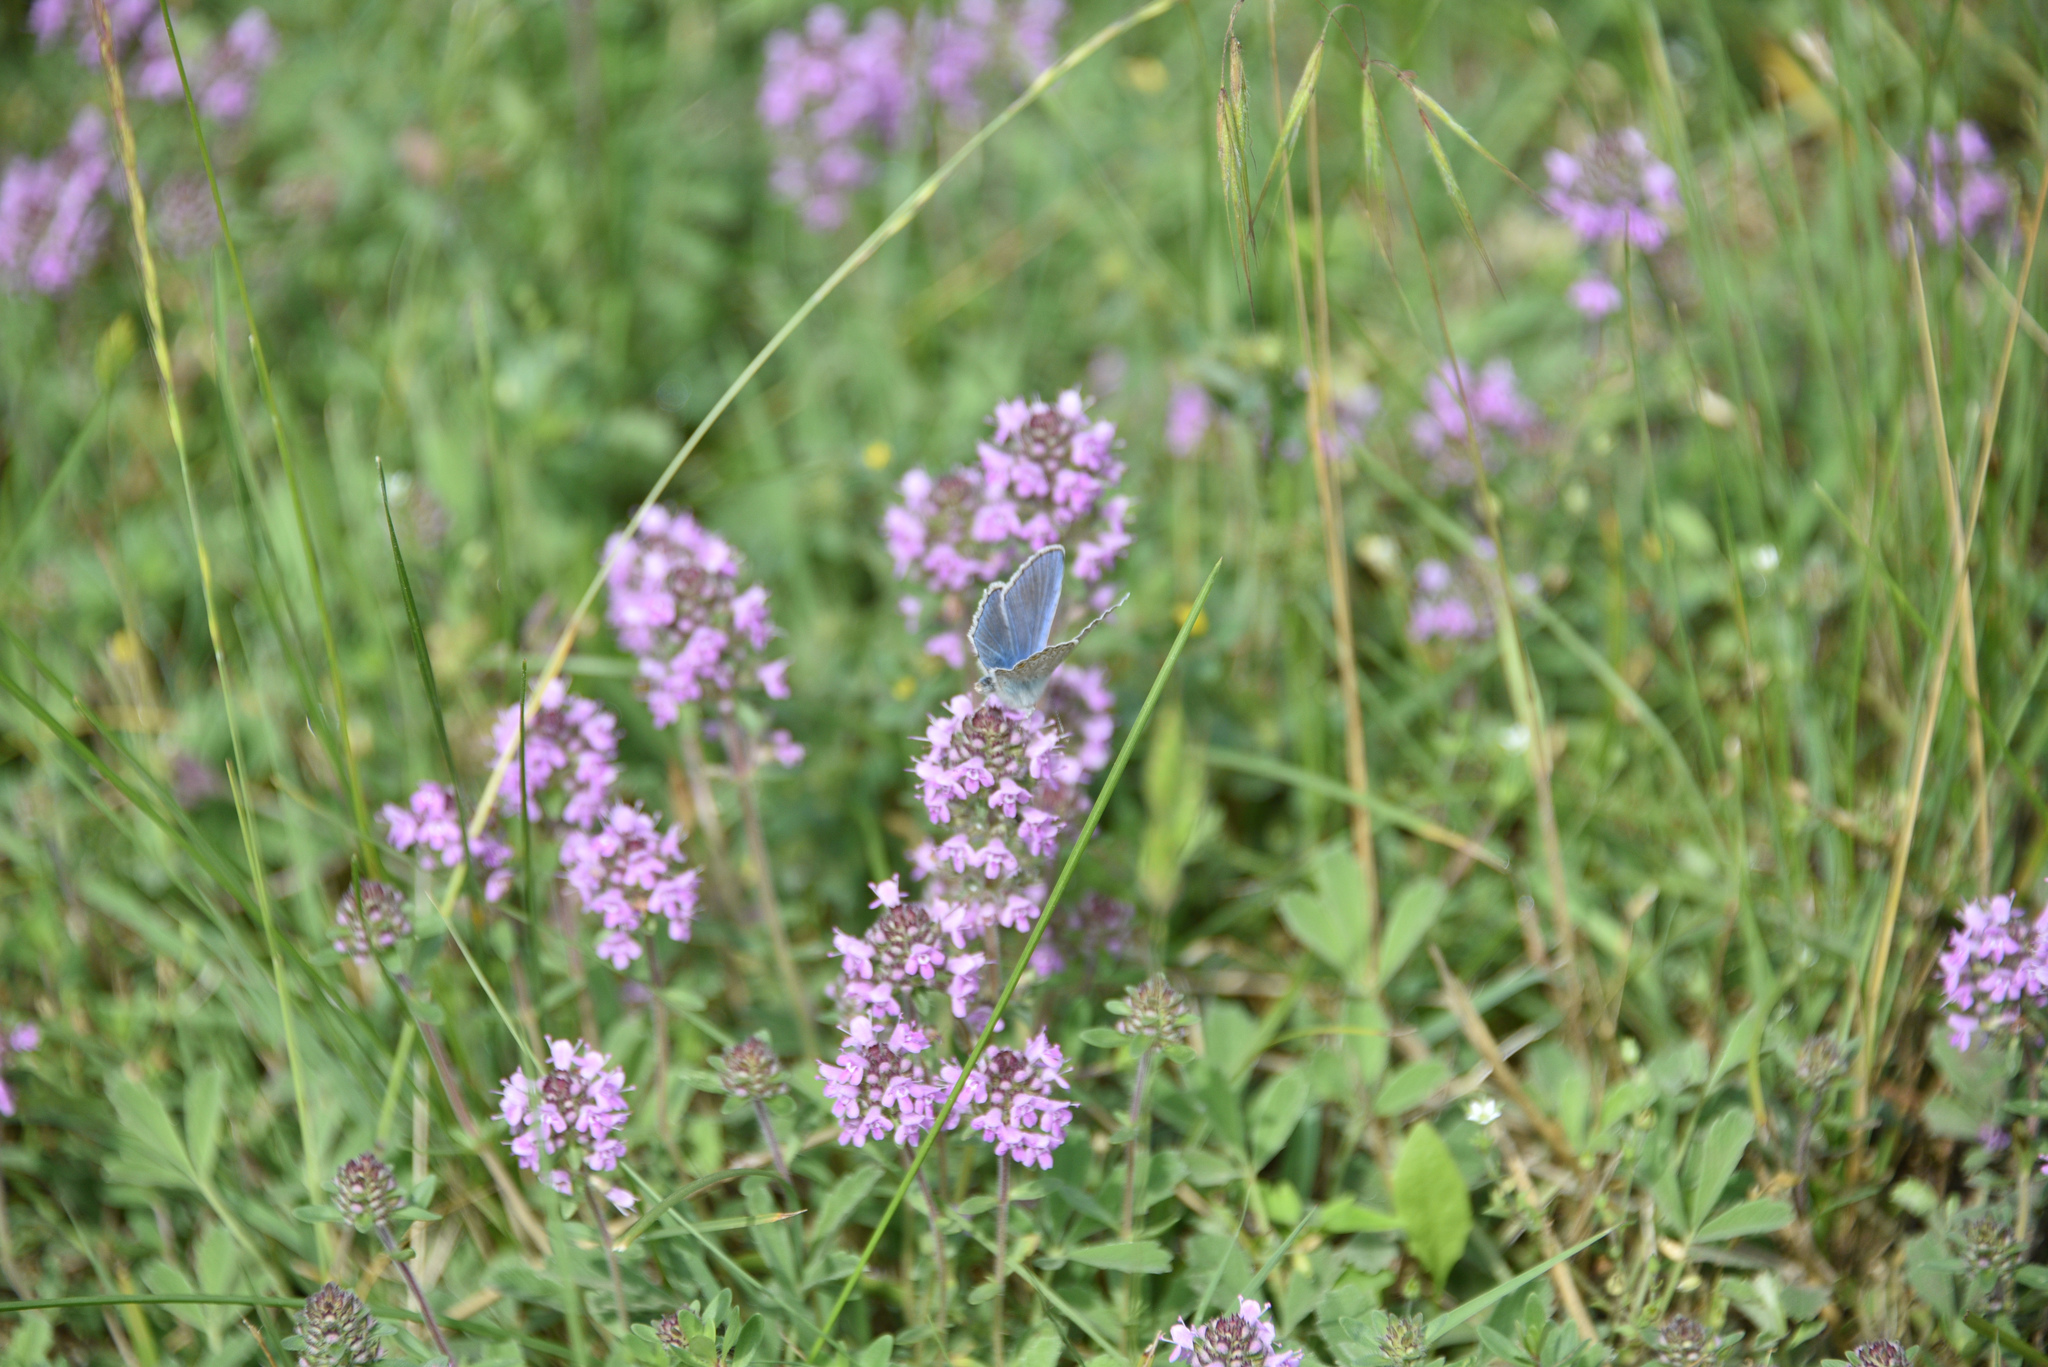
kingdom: Plantae
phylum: Tracheophyta
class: Magnoliopsida
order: Lamiales
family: Lamiaceae
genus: Origanum
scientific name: Origanum vulgare
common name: Wild marjoram
